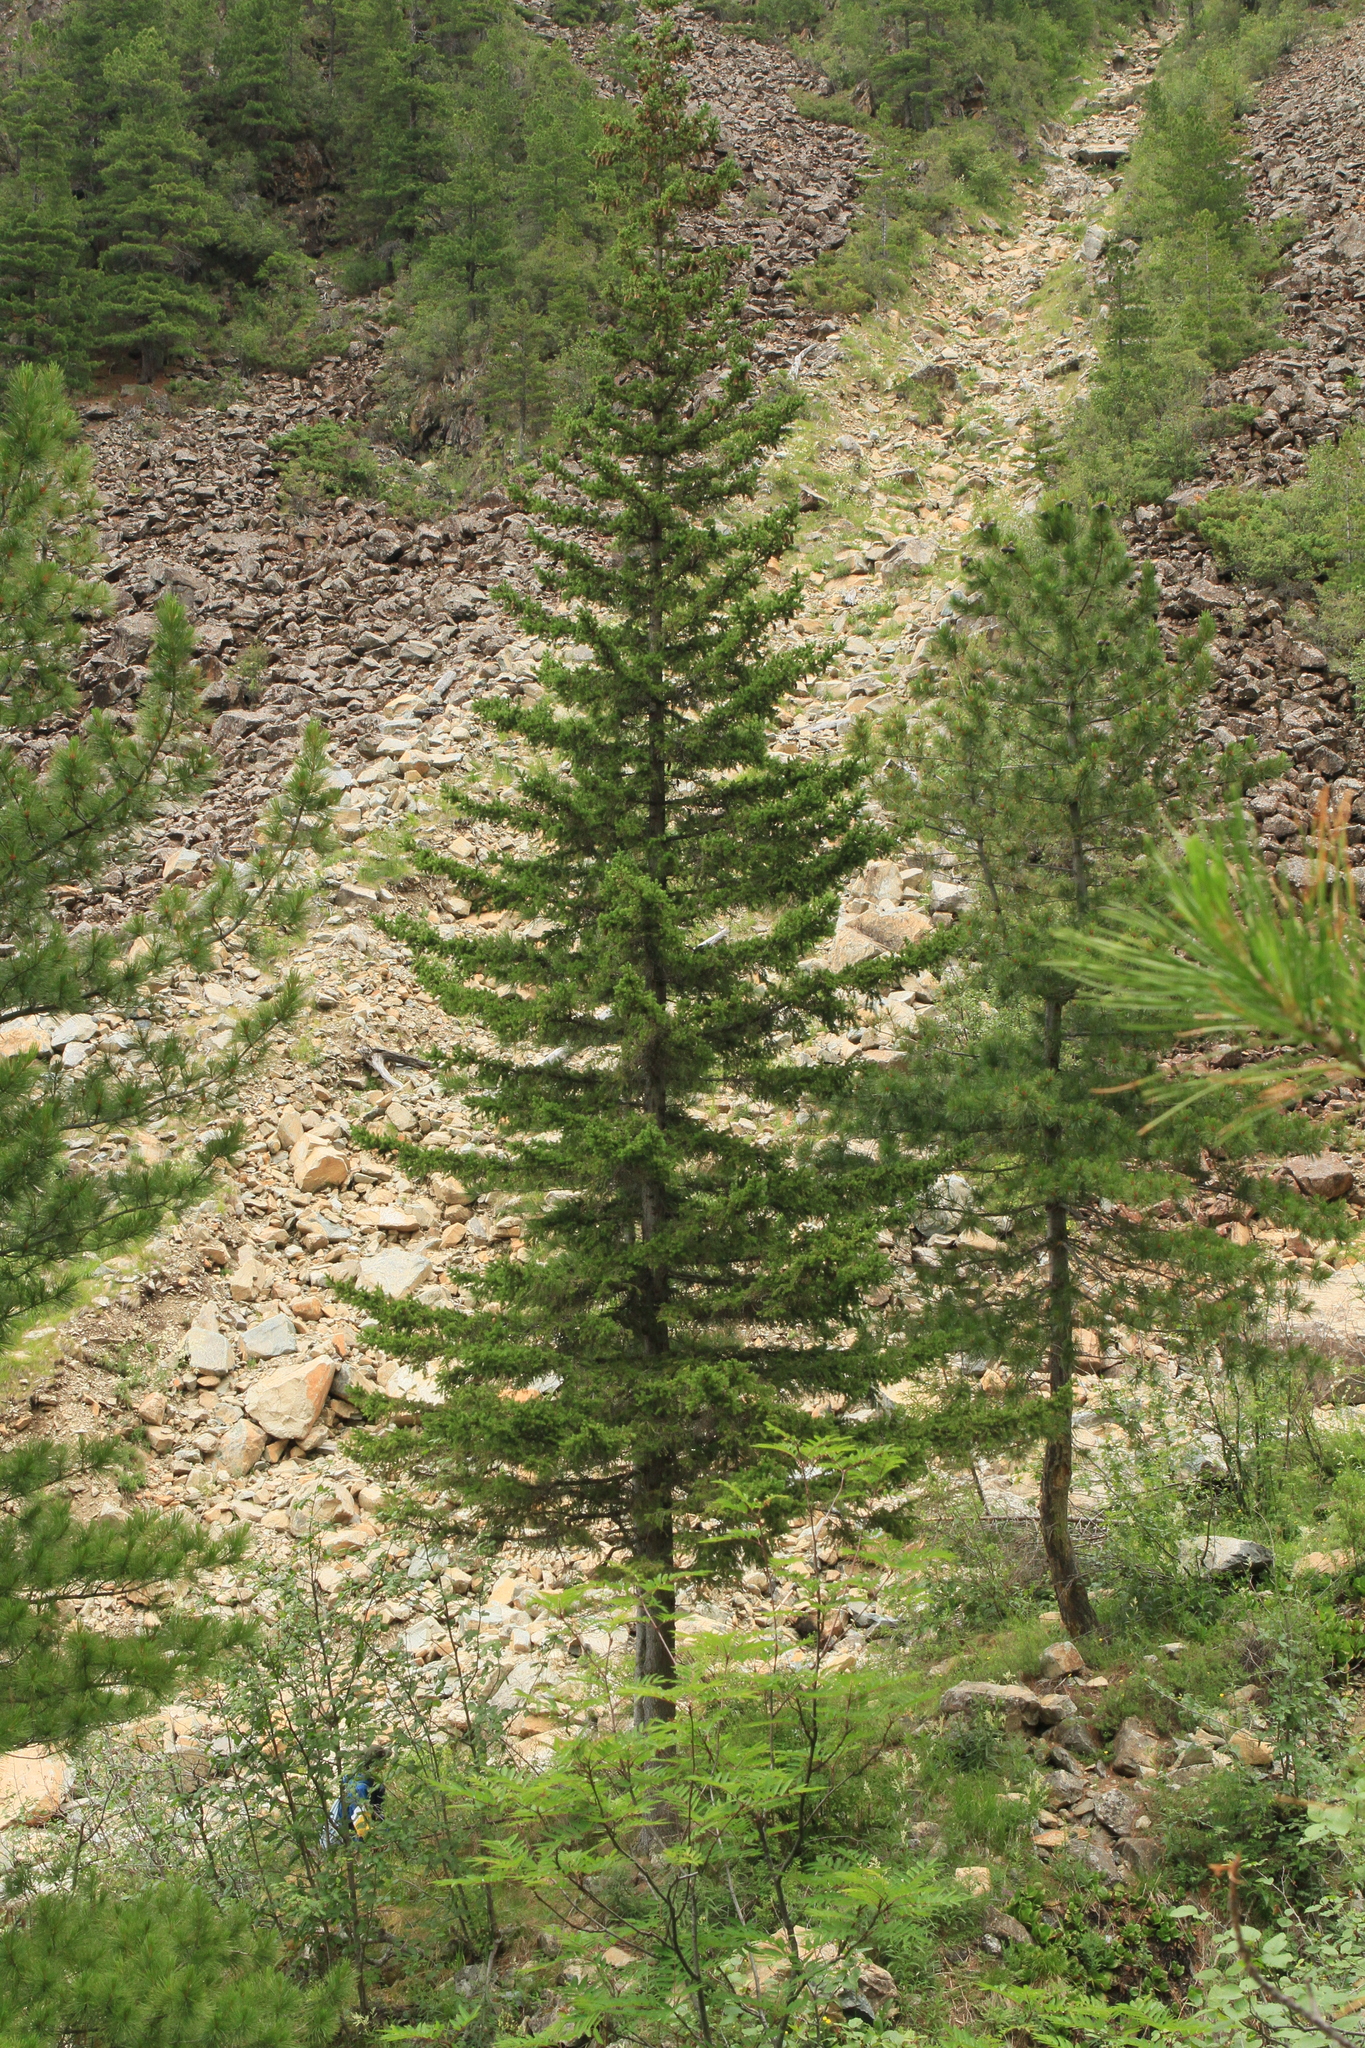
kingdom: Plantae
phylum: Tracheophyta
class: Pinopsida
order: Pinales
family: Pinaceae
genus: Picea
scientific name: Picea obovata
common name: Siberian spruce
